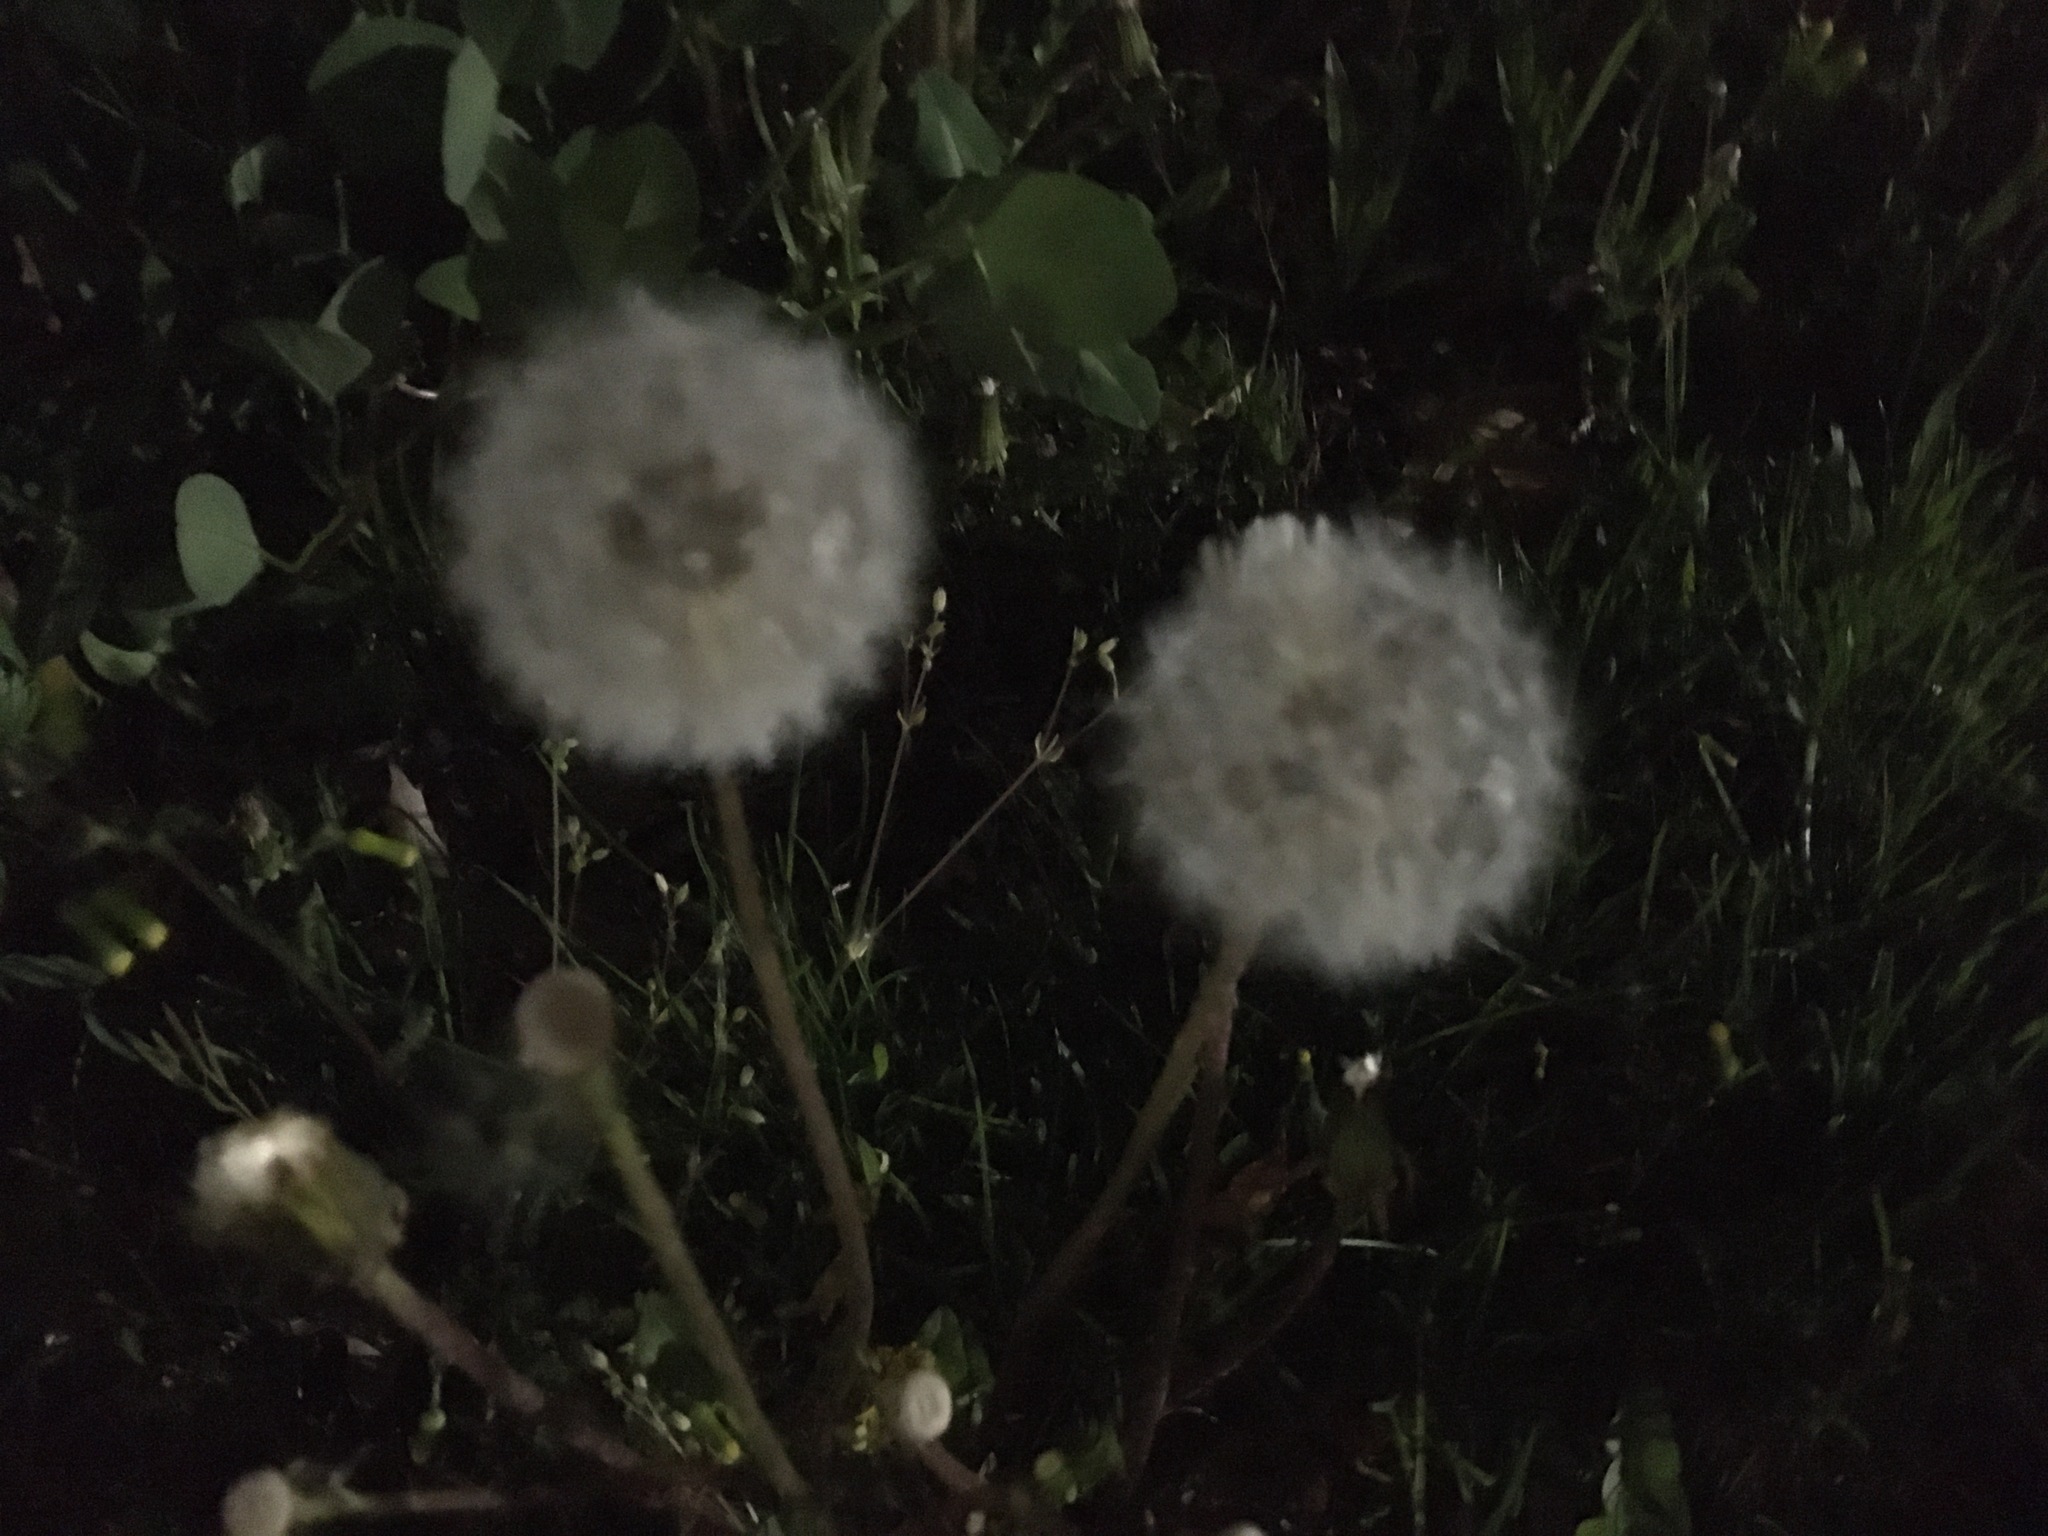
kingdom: Plantae
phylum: Tracheophyta
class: Magnoliopsida
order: Asterales
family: Asteraceae
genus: Taraxacum
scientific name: Taraxacum officinale
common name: Common dandelion
